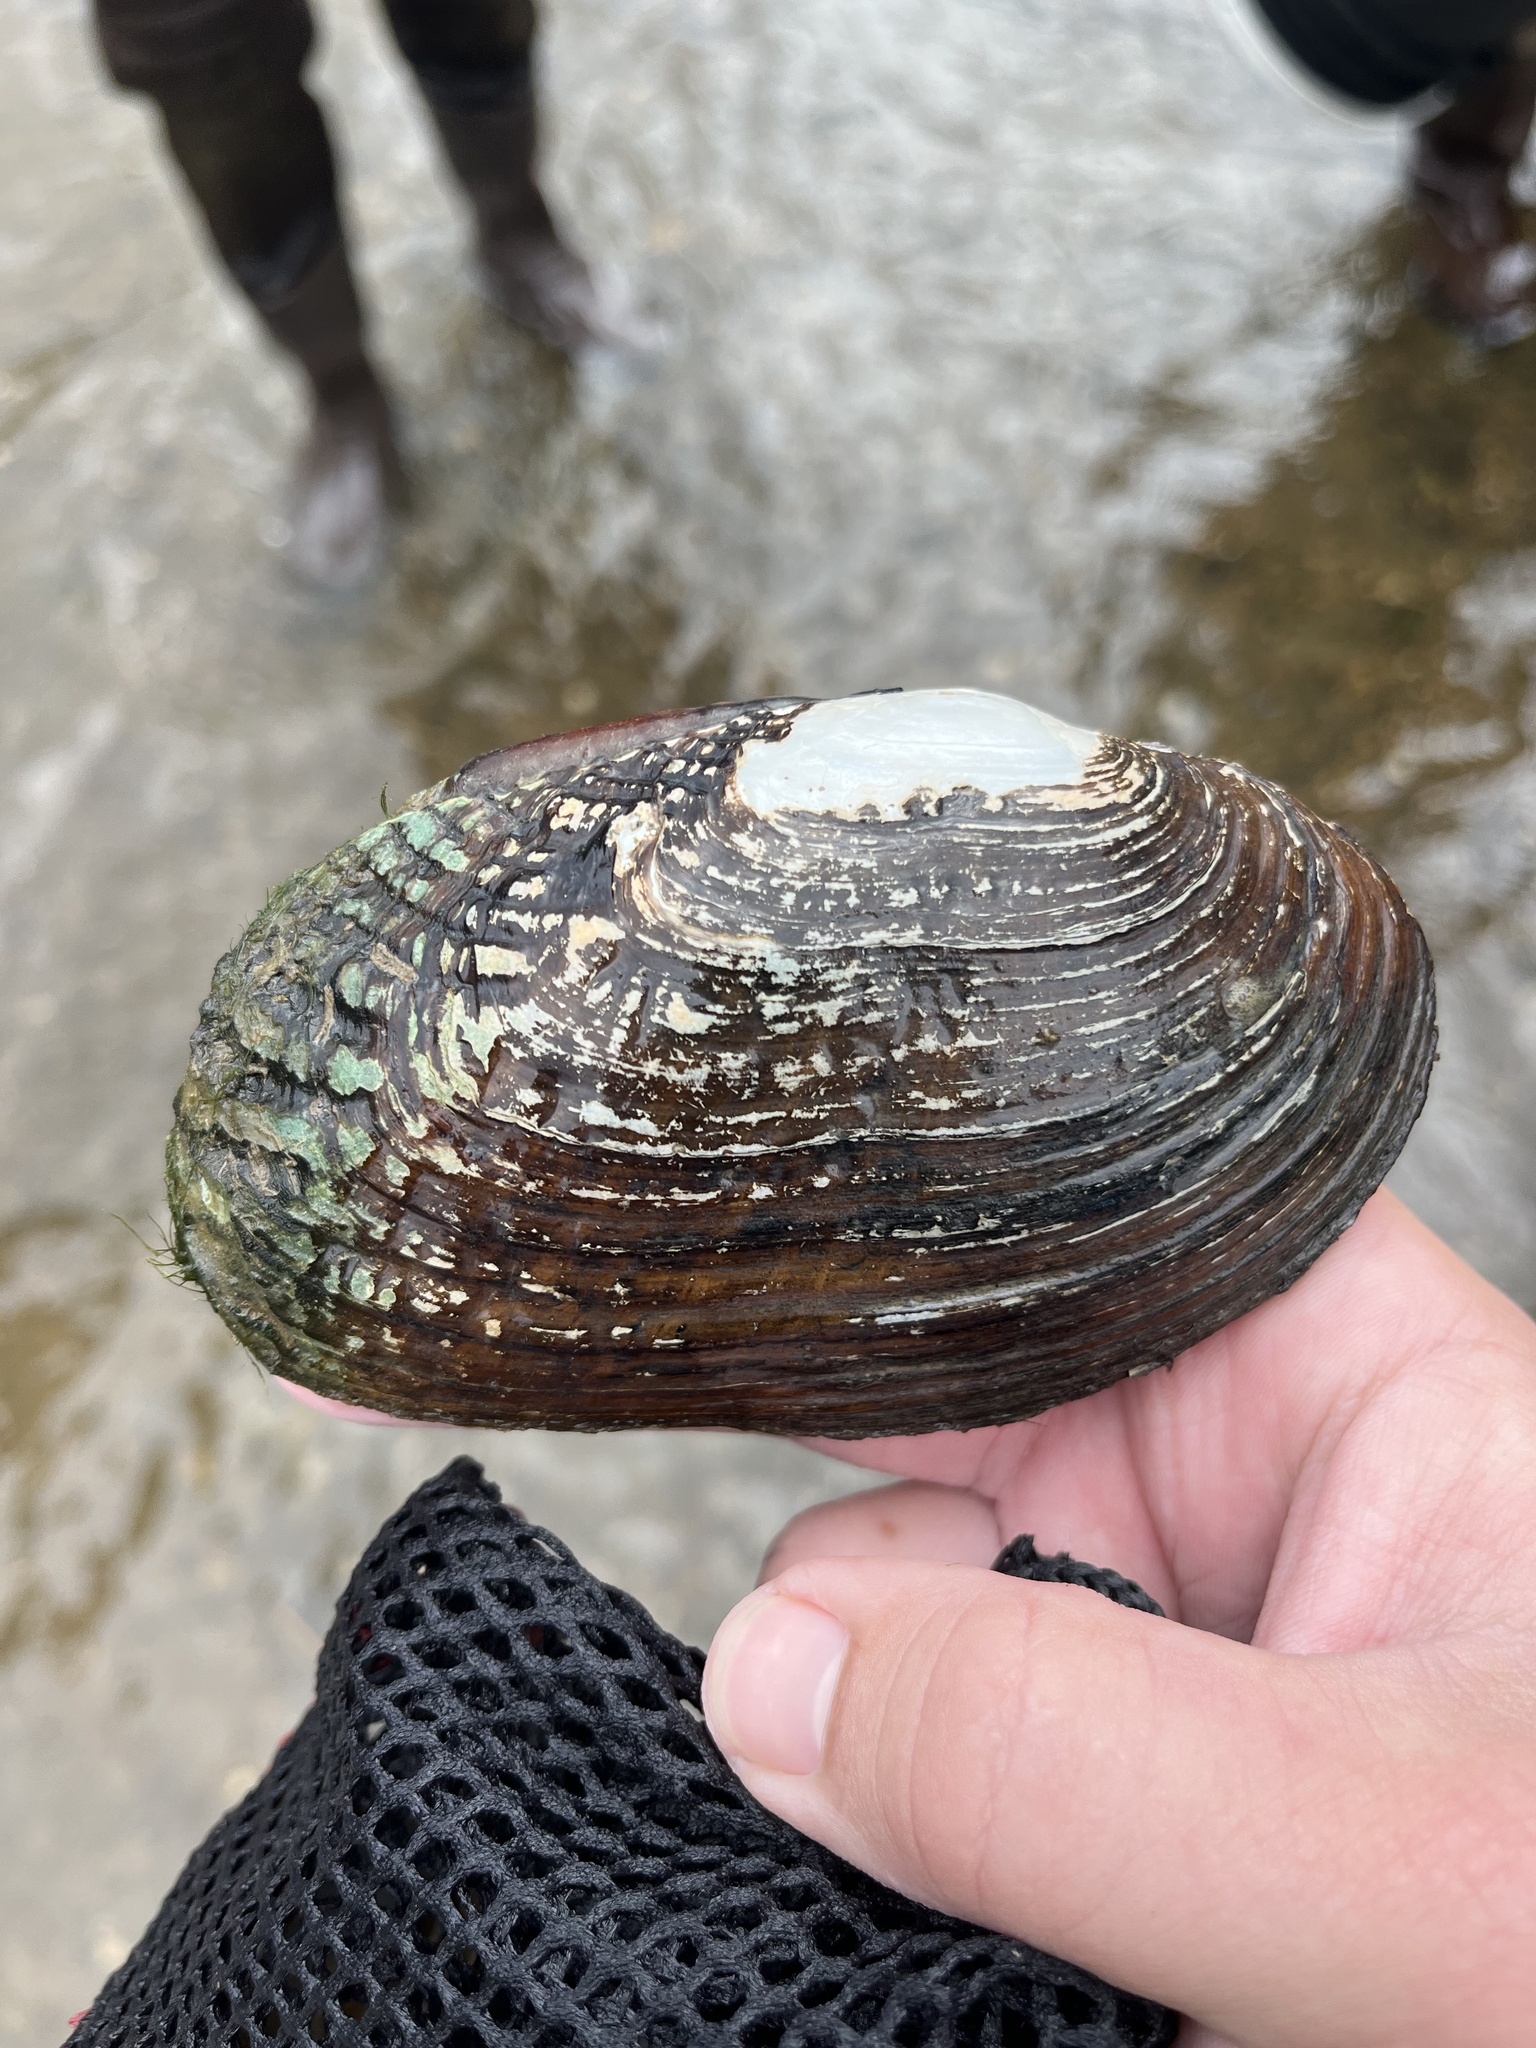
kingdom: Animalia
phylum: Mollusca
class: Bivalvia
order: Unionida
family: Unionidae
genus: Lasmigona
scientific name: Lasmigona costata
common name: Flutedshell
